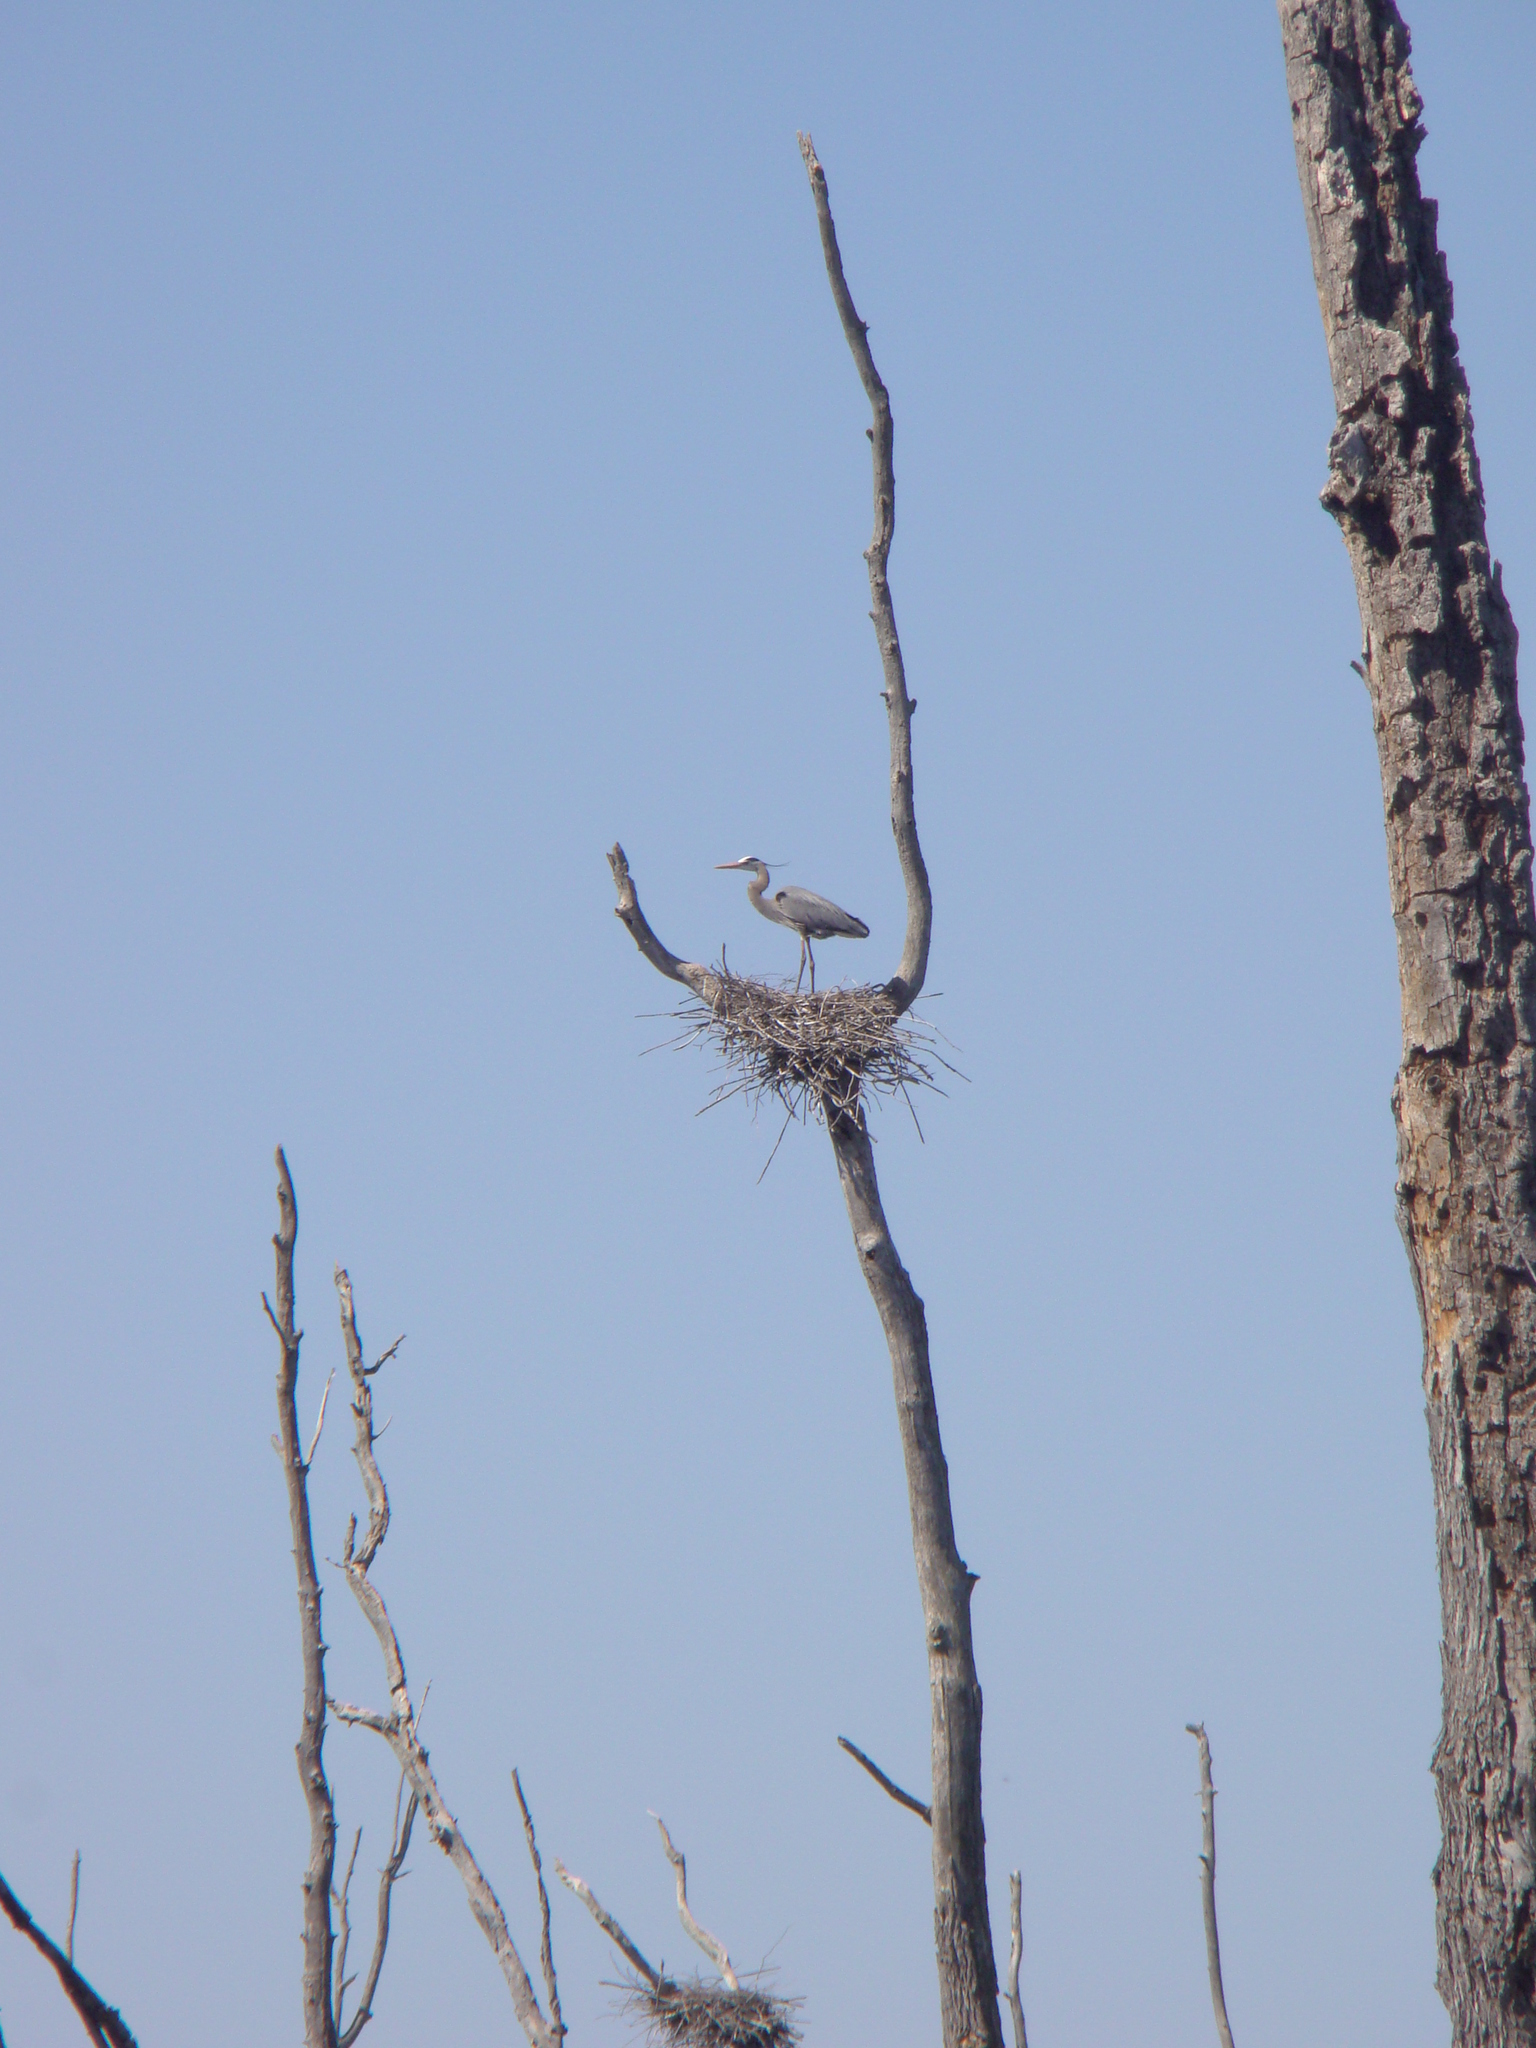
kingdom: Animalia
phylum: Chordata
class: Aves
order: Pelecaniformes
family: Ardeidae
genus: Ardea
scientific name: Ardea herodias
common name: Great blue heron
